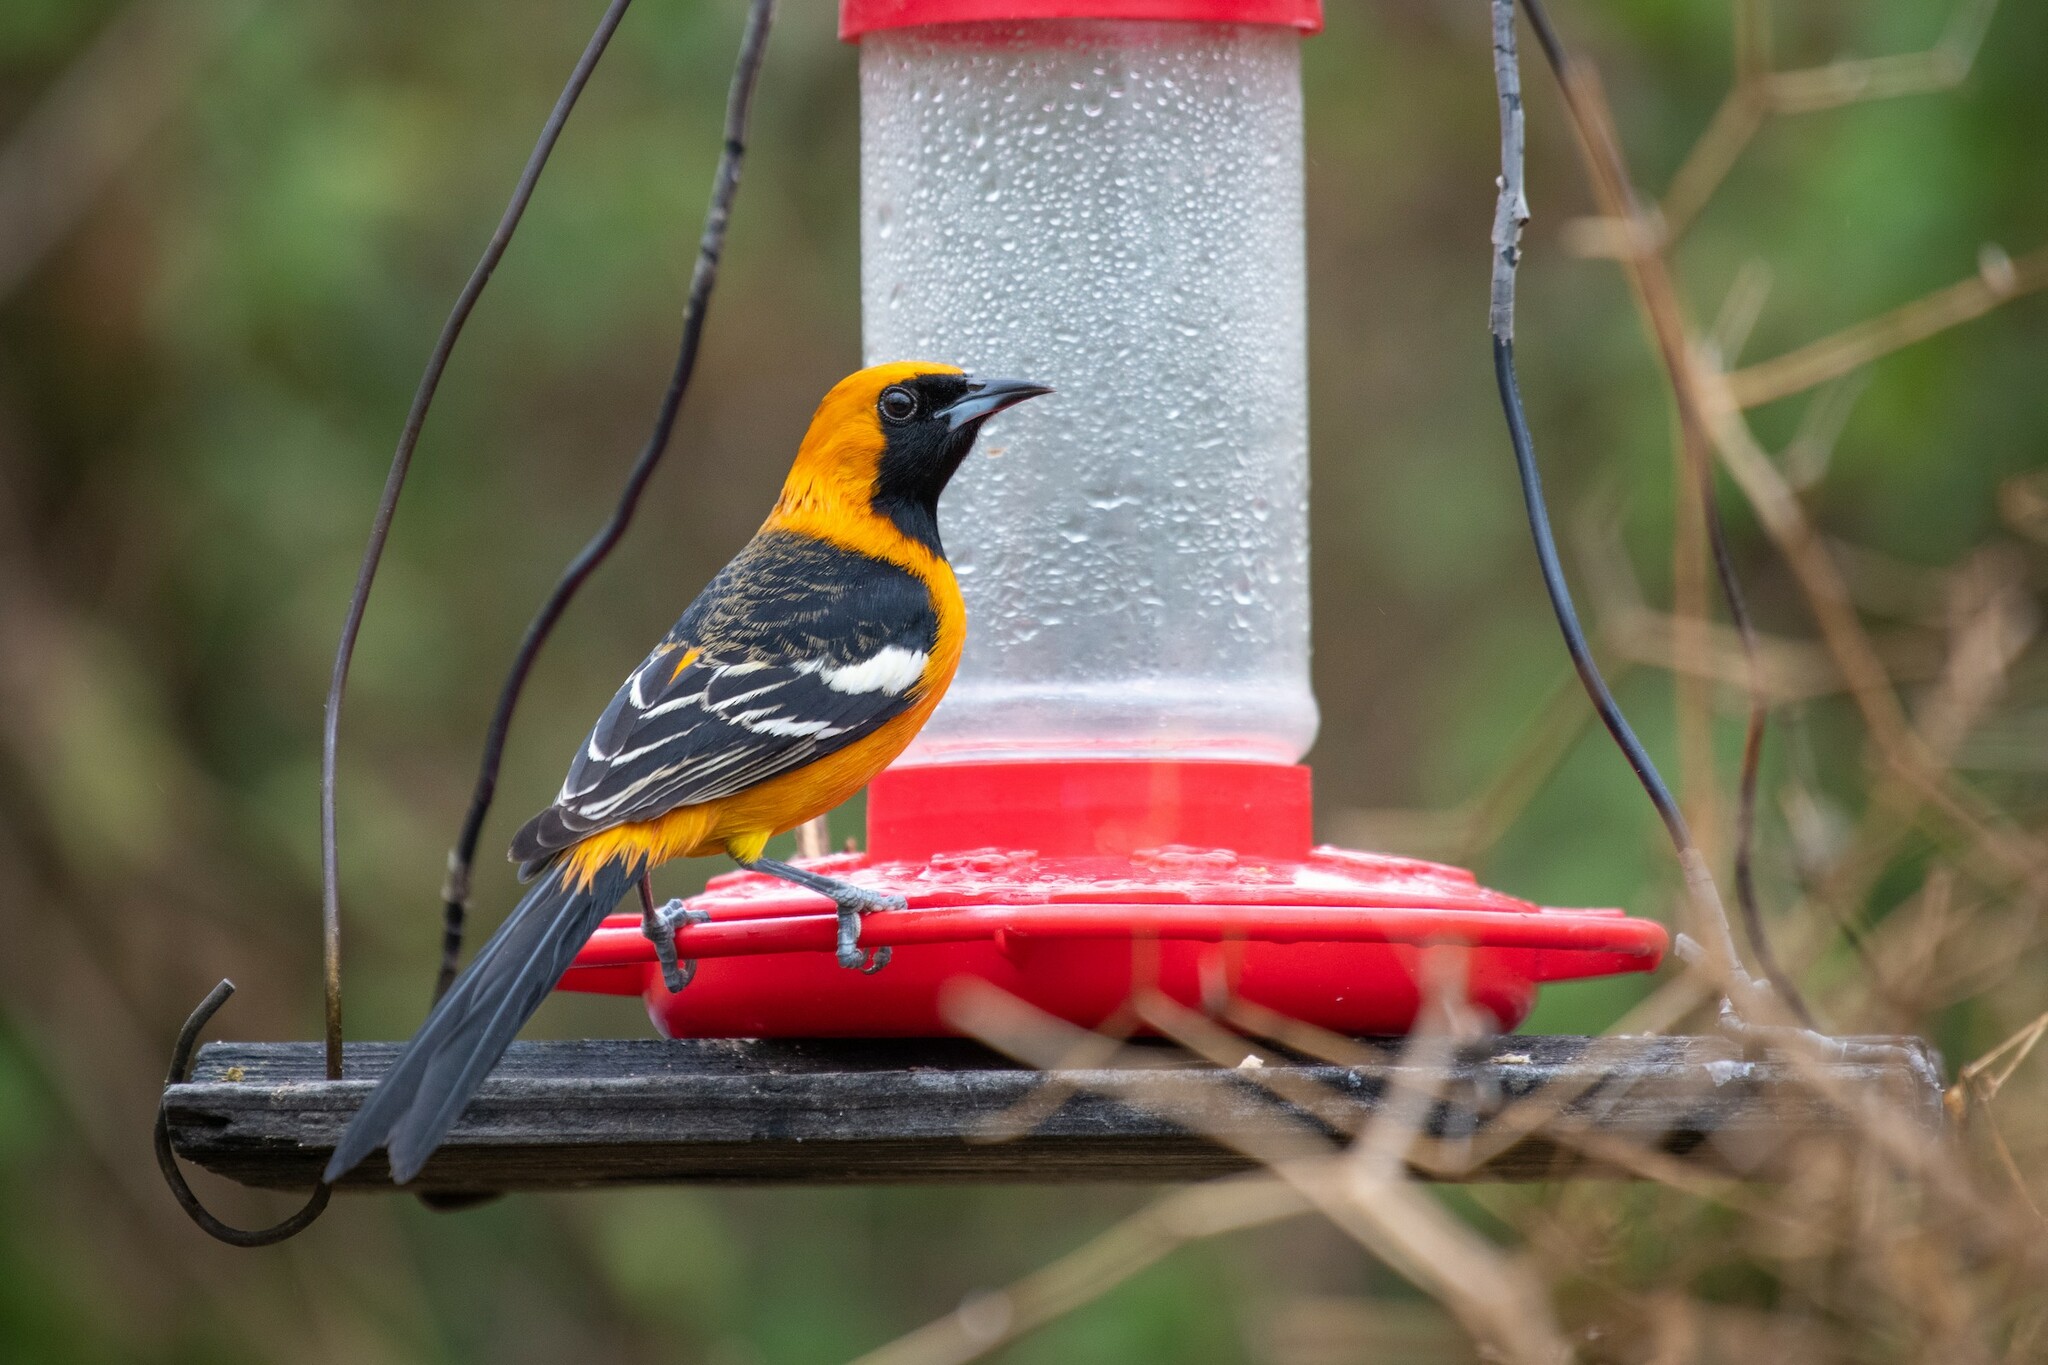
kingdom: Animalia
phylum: Chordata
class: Aves
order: Passeriformes
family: Icteridae
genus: Icterus
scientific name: Icterus cucullatus
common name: Hooded oriole
